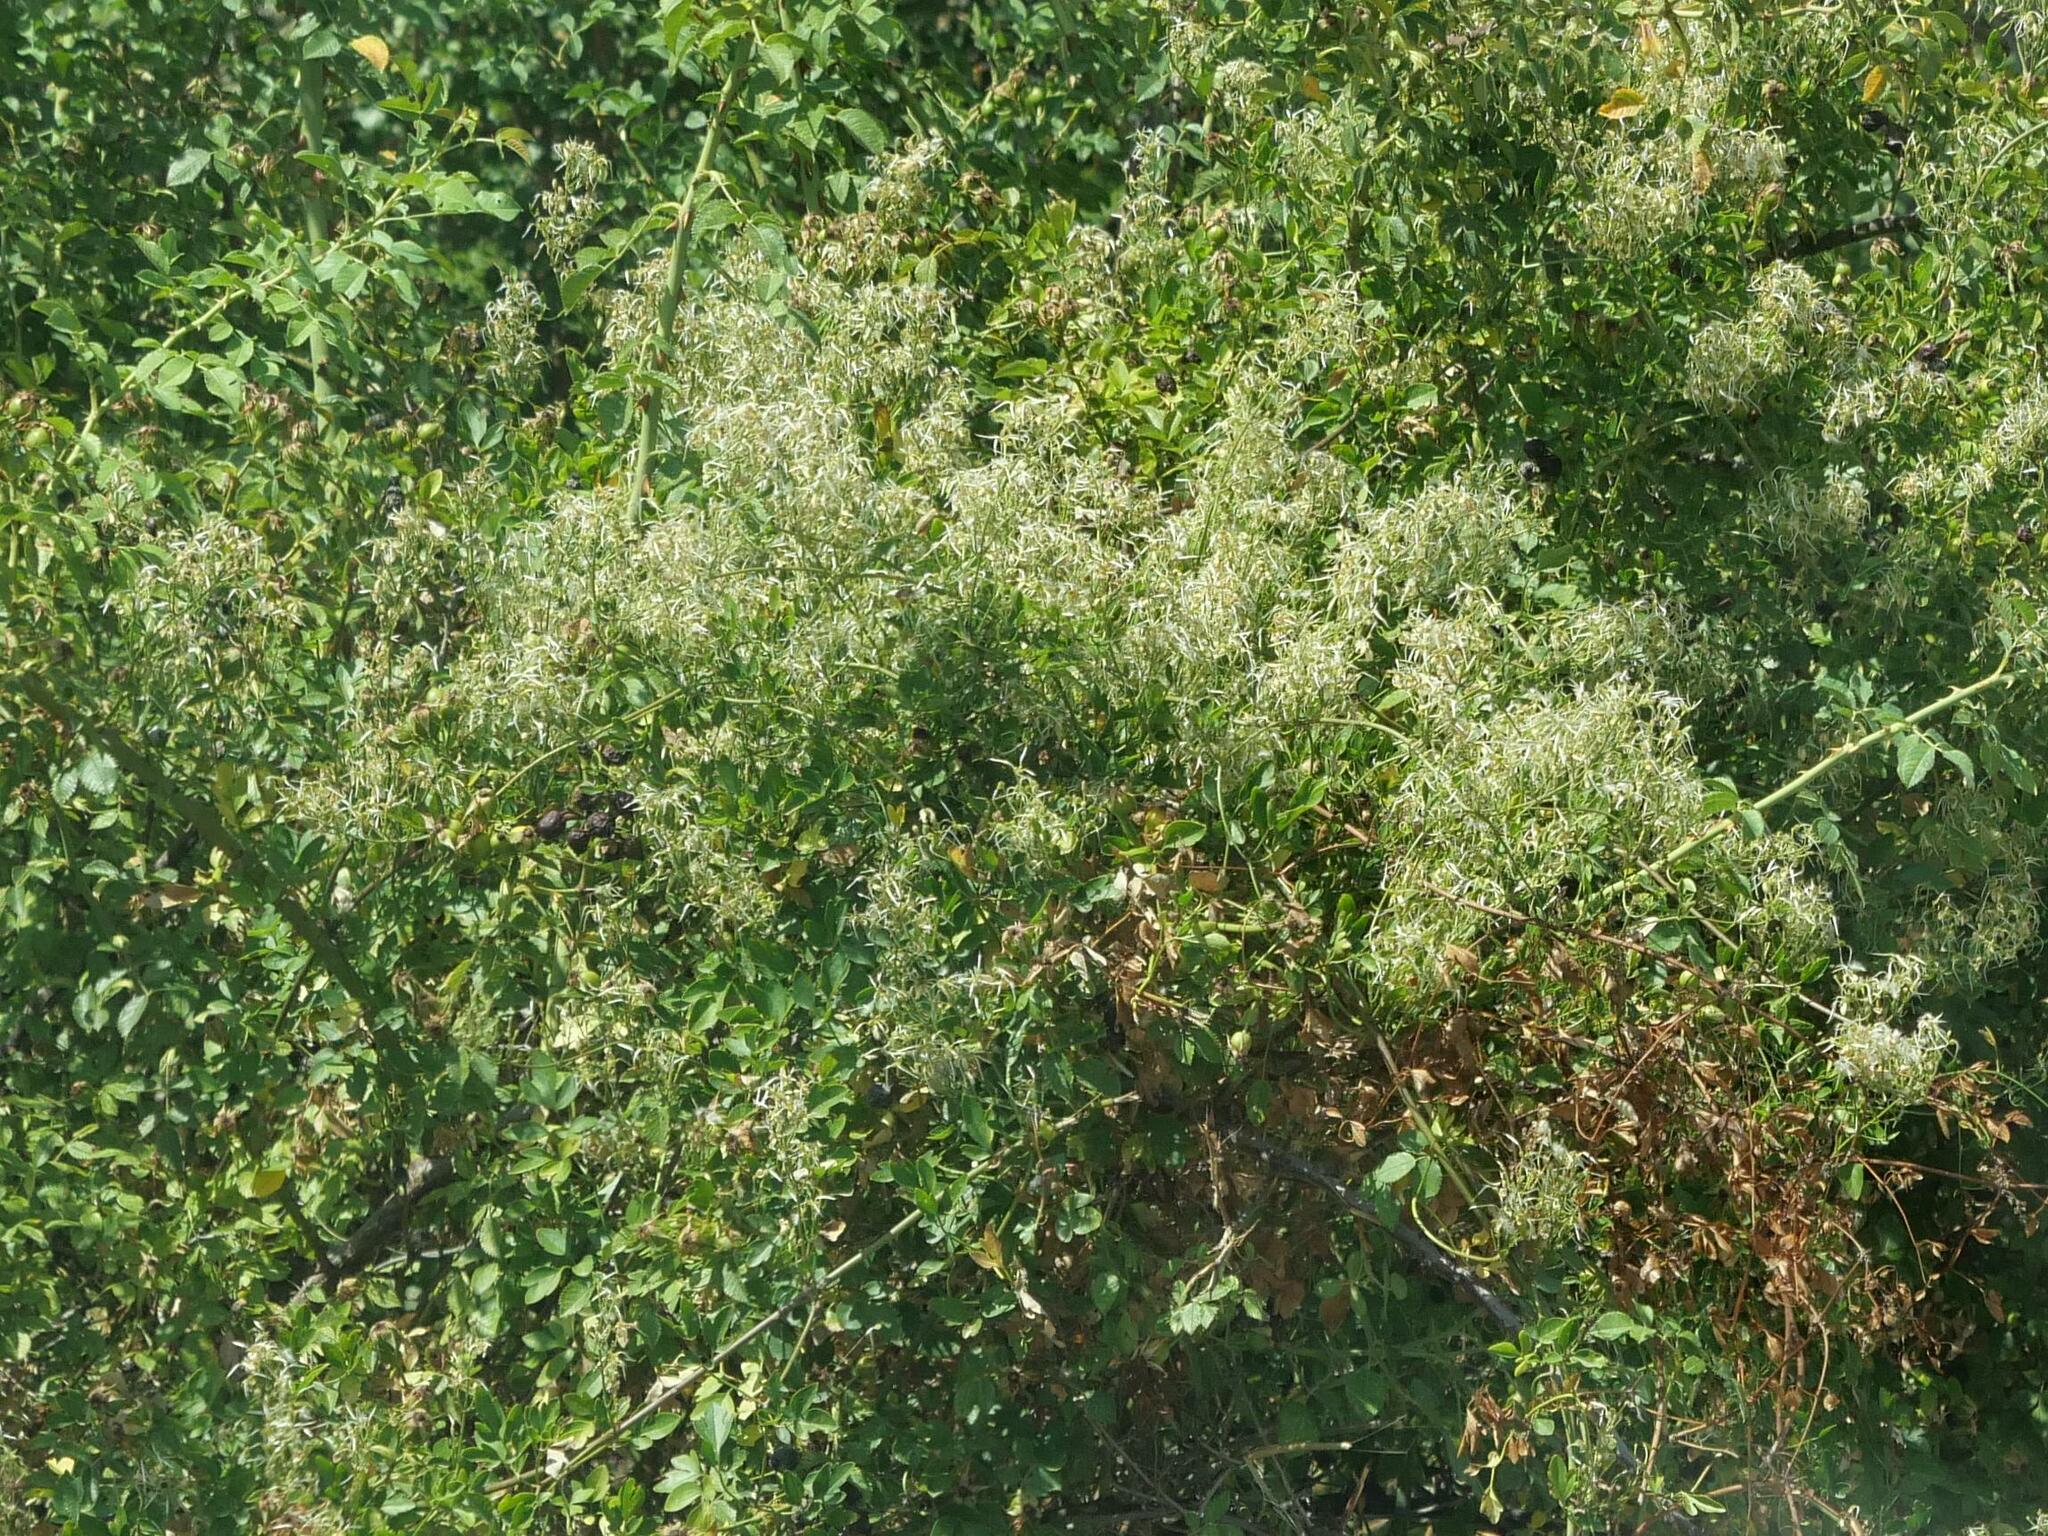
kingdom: Plantae
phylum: Tracheophyta
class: Magnoliopsida
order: Ranunculales
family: Ranunculaceae
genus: Clematis
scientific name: Clematis flammula
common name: Virgin's-bower
